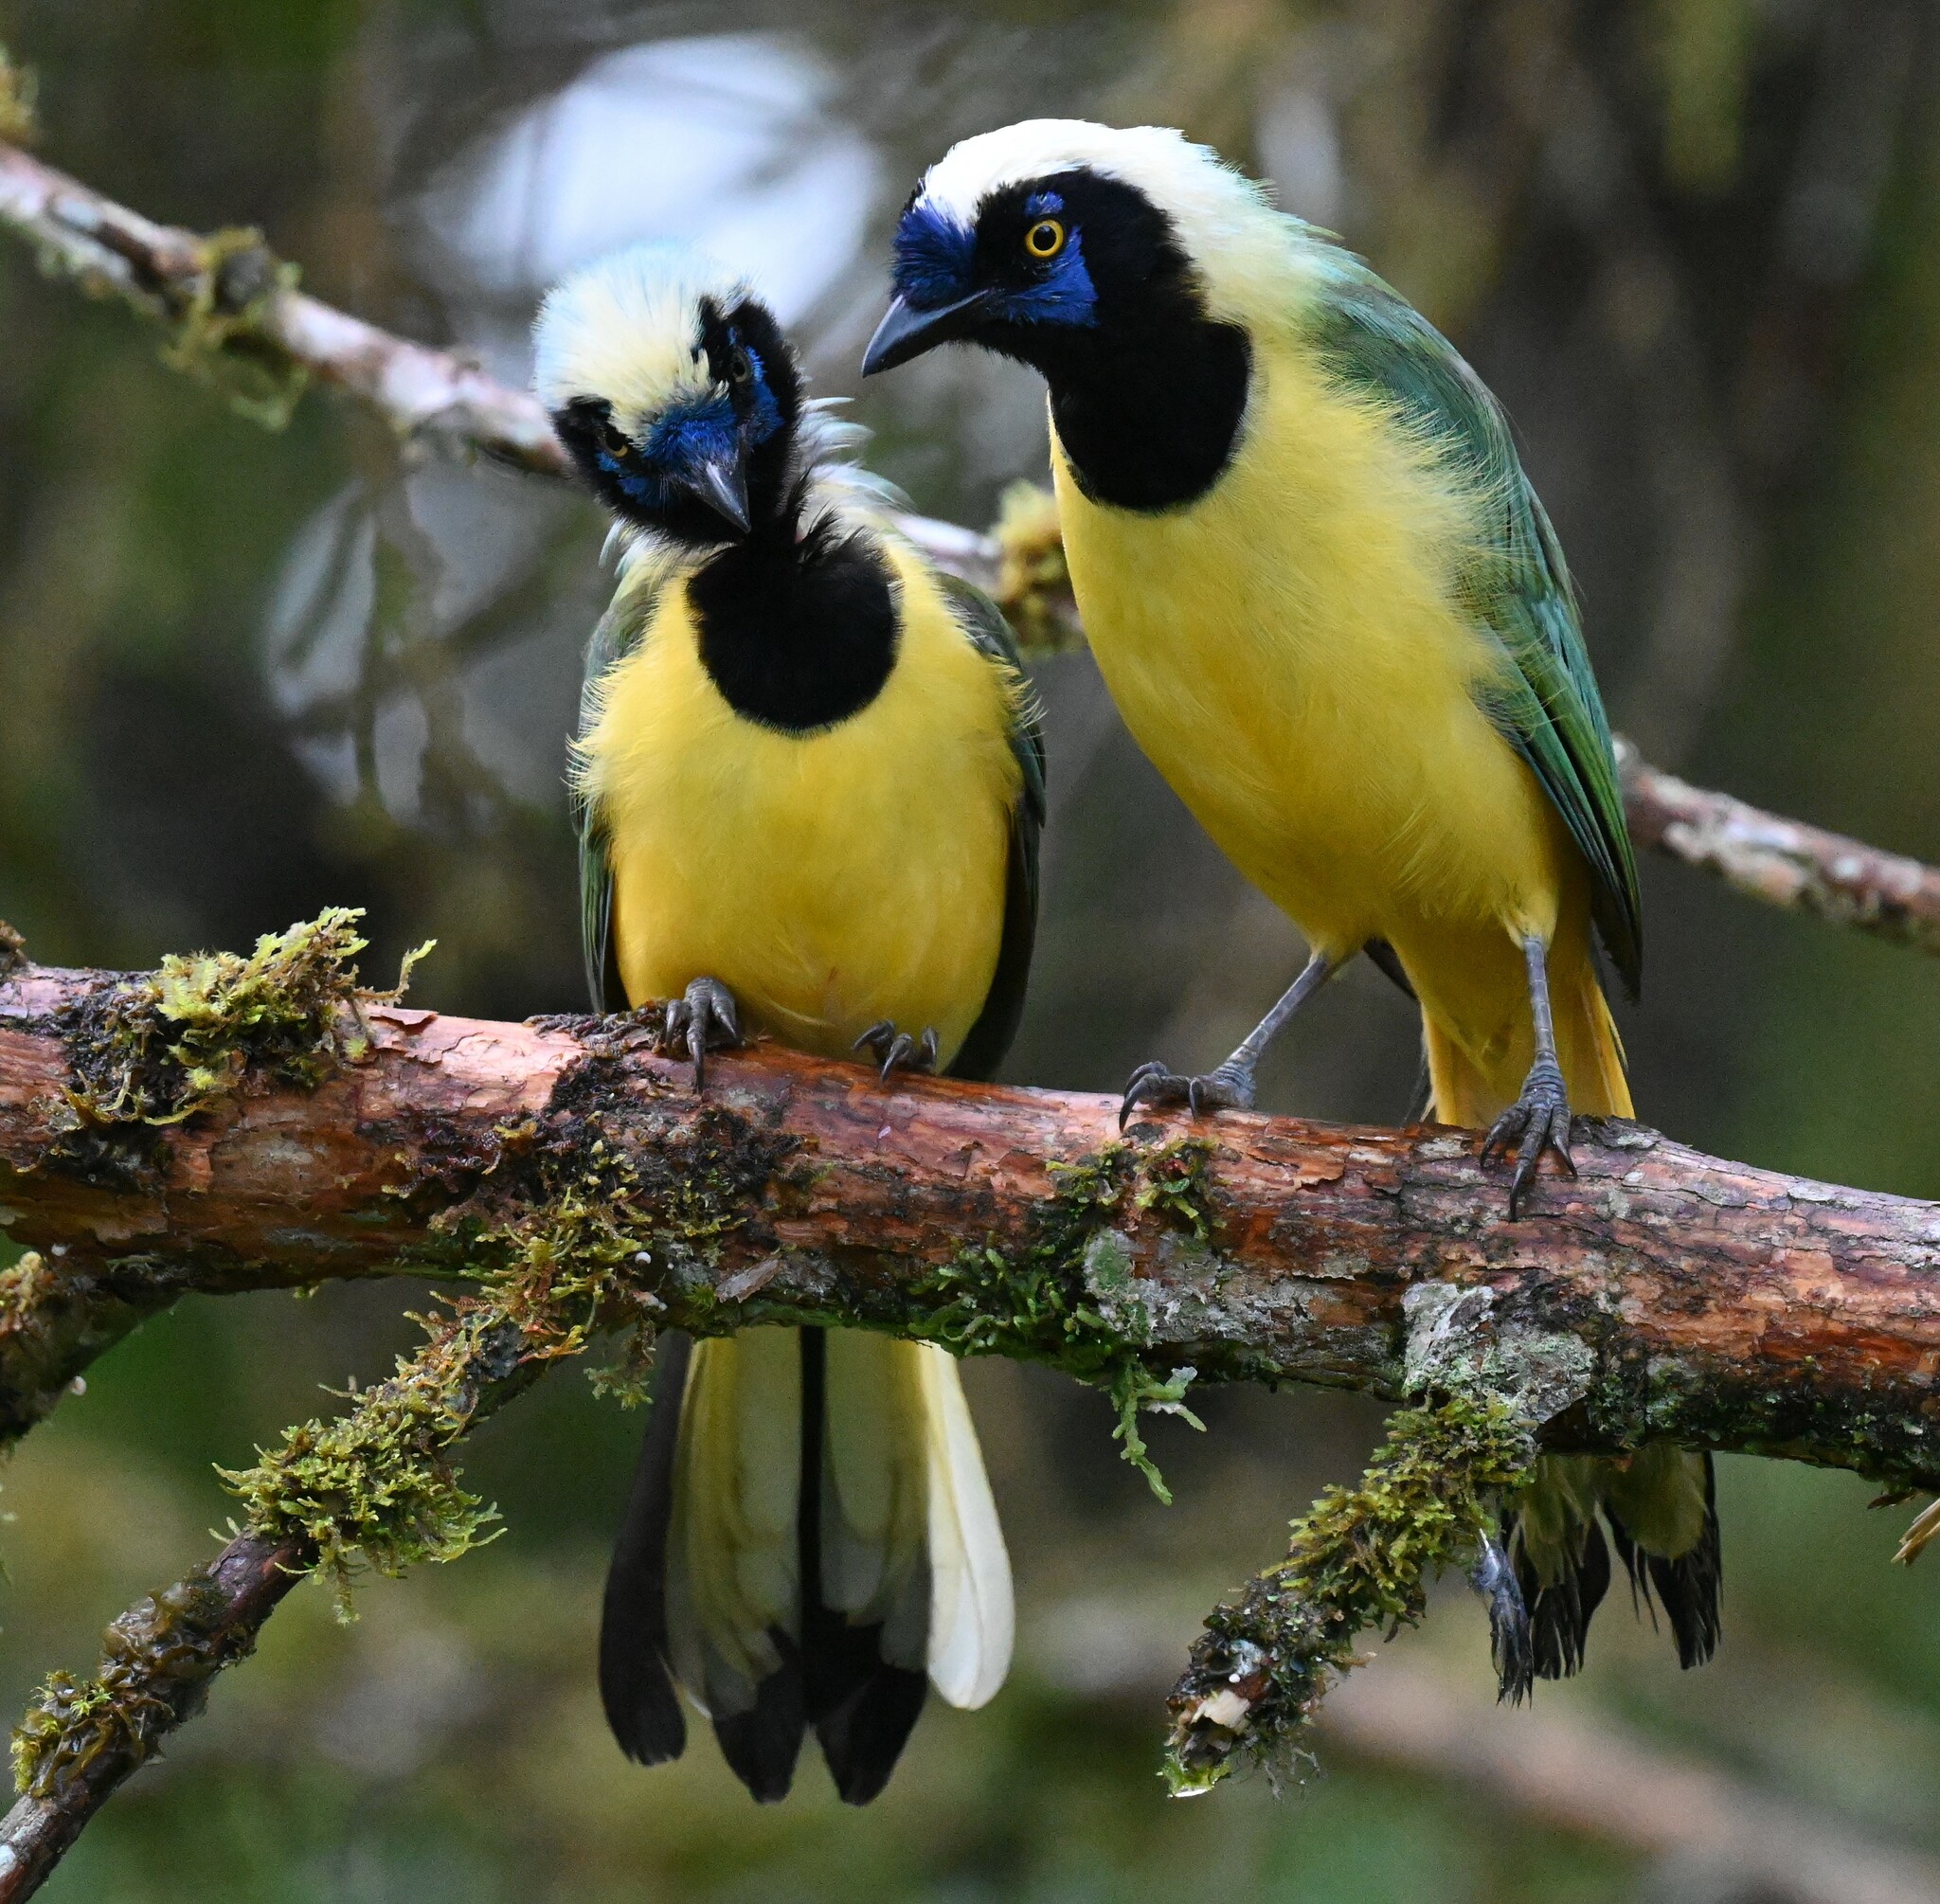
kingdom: Animalia
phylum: Chordata
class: Aves
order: Passeriformes
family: Corvidae
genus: Cyanocorax
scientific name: Cyanocorax yncas
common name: Green jay
